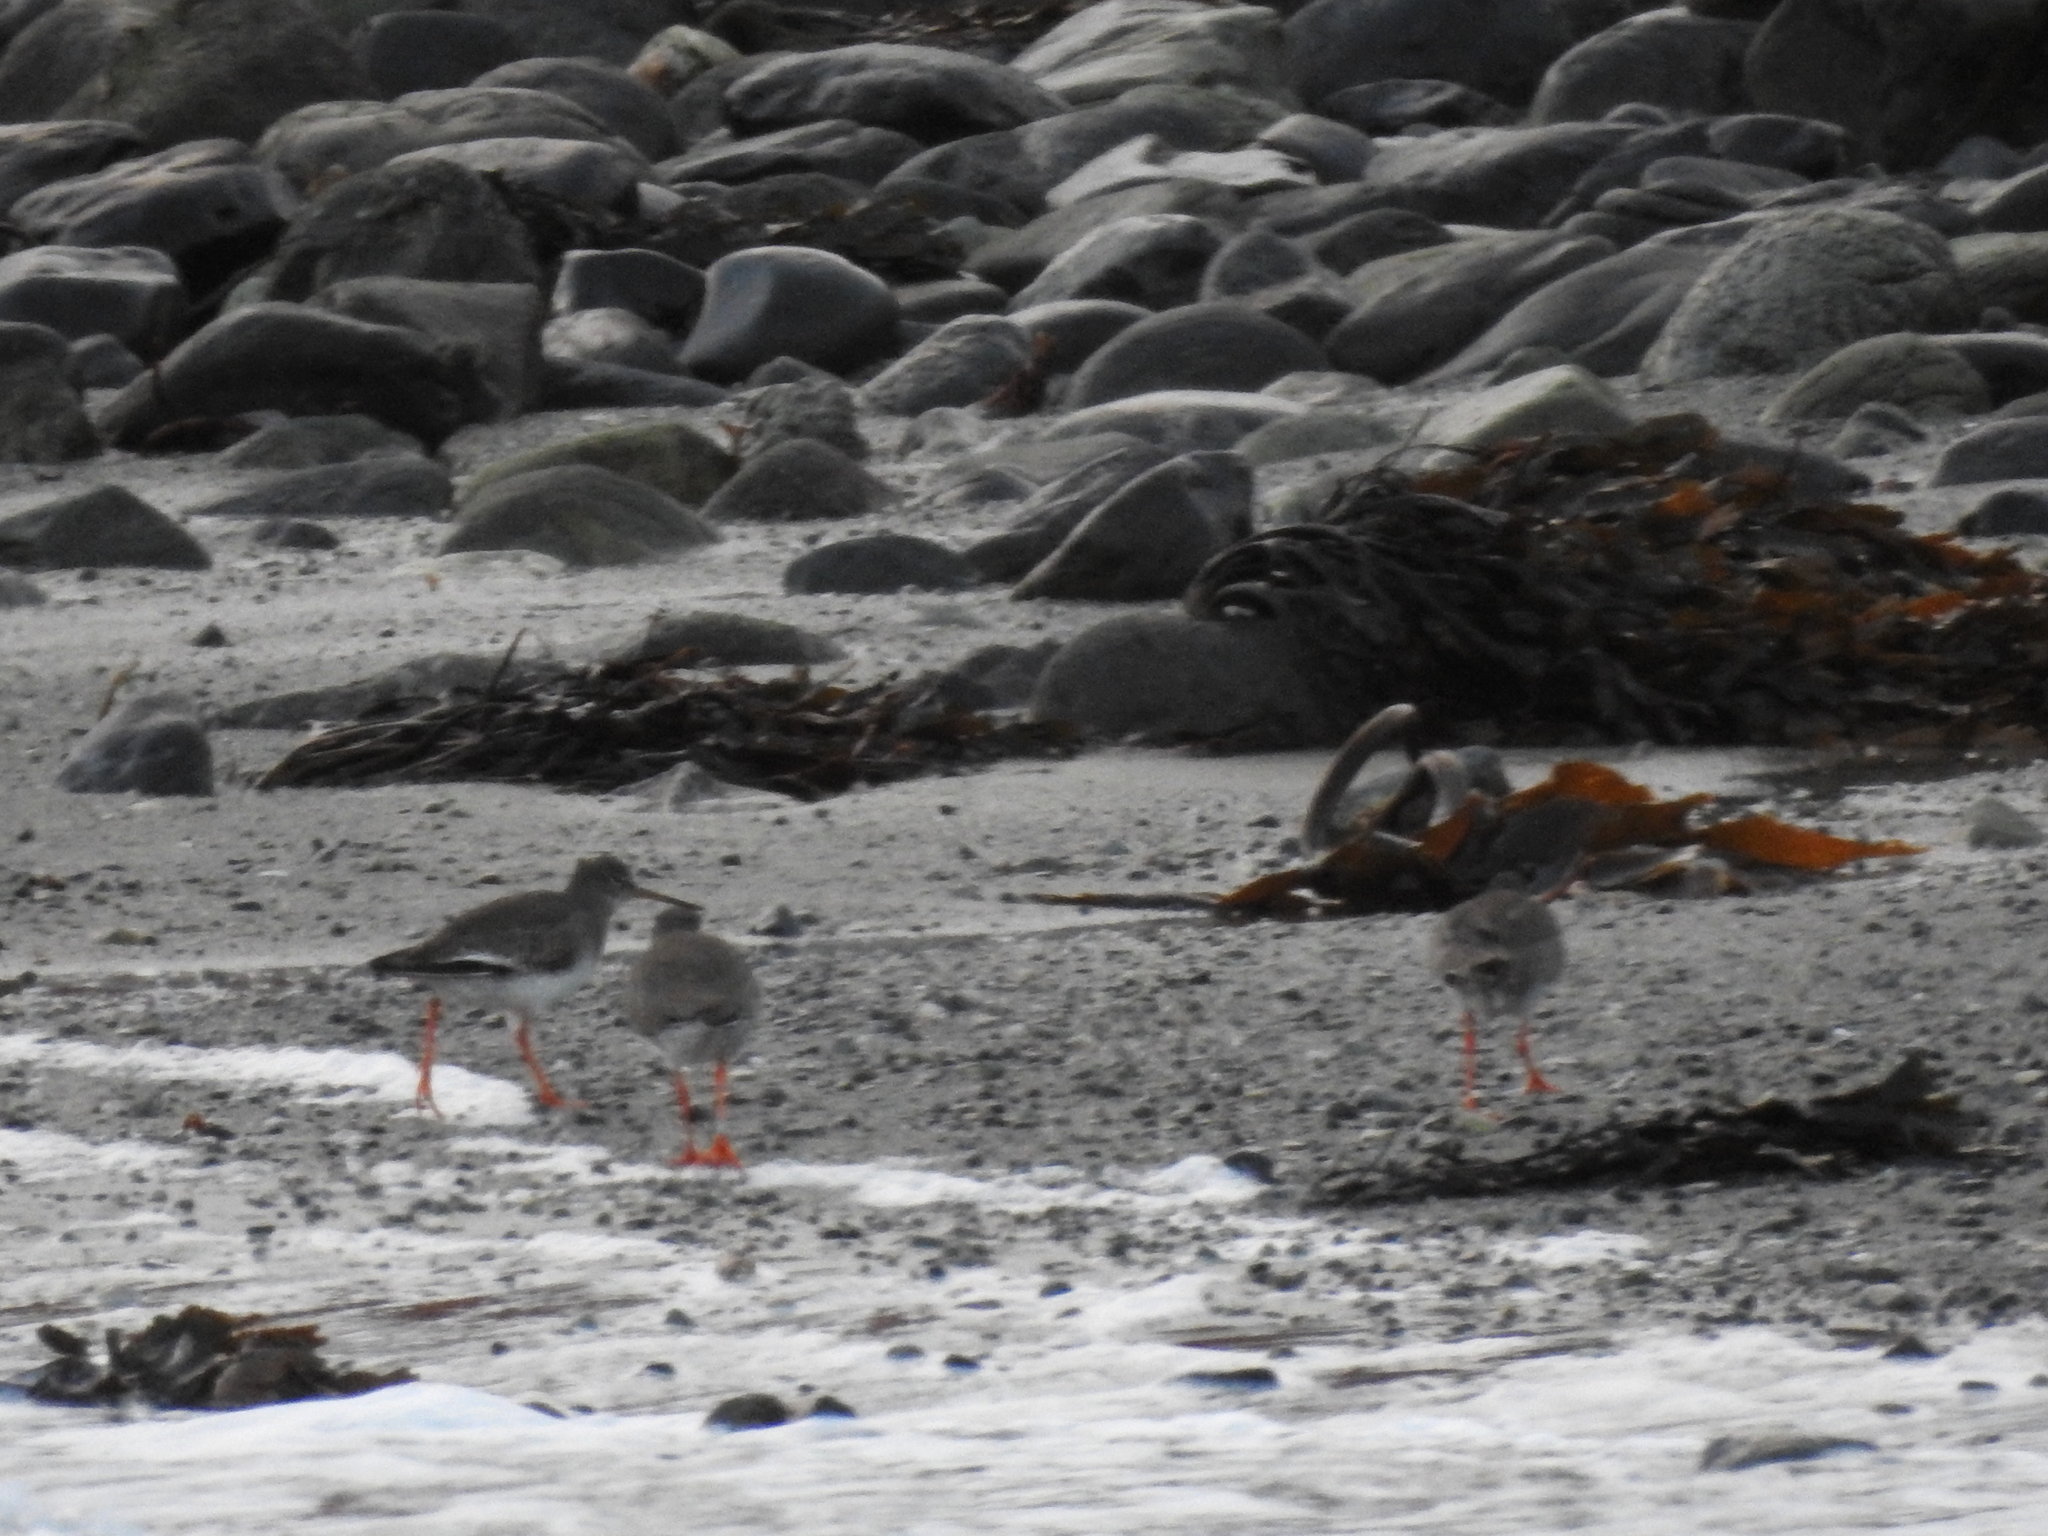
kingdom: Animalia
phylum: Chordata
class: Aves
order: Charadriiformes
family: Scolopacidae
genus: Tringa
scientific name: Tringa totanus
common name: Common redshank
